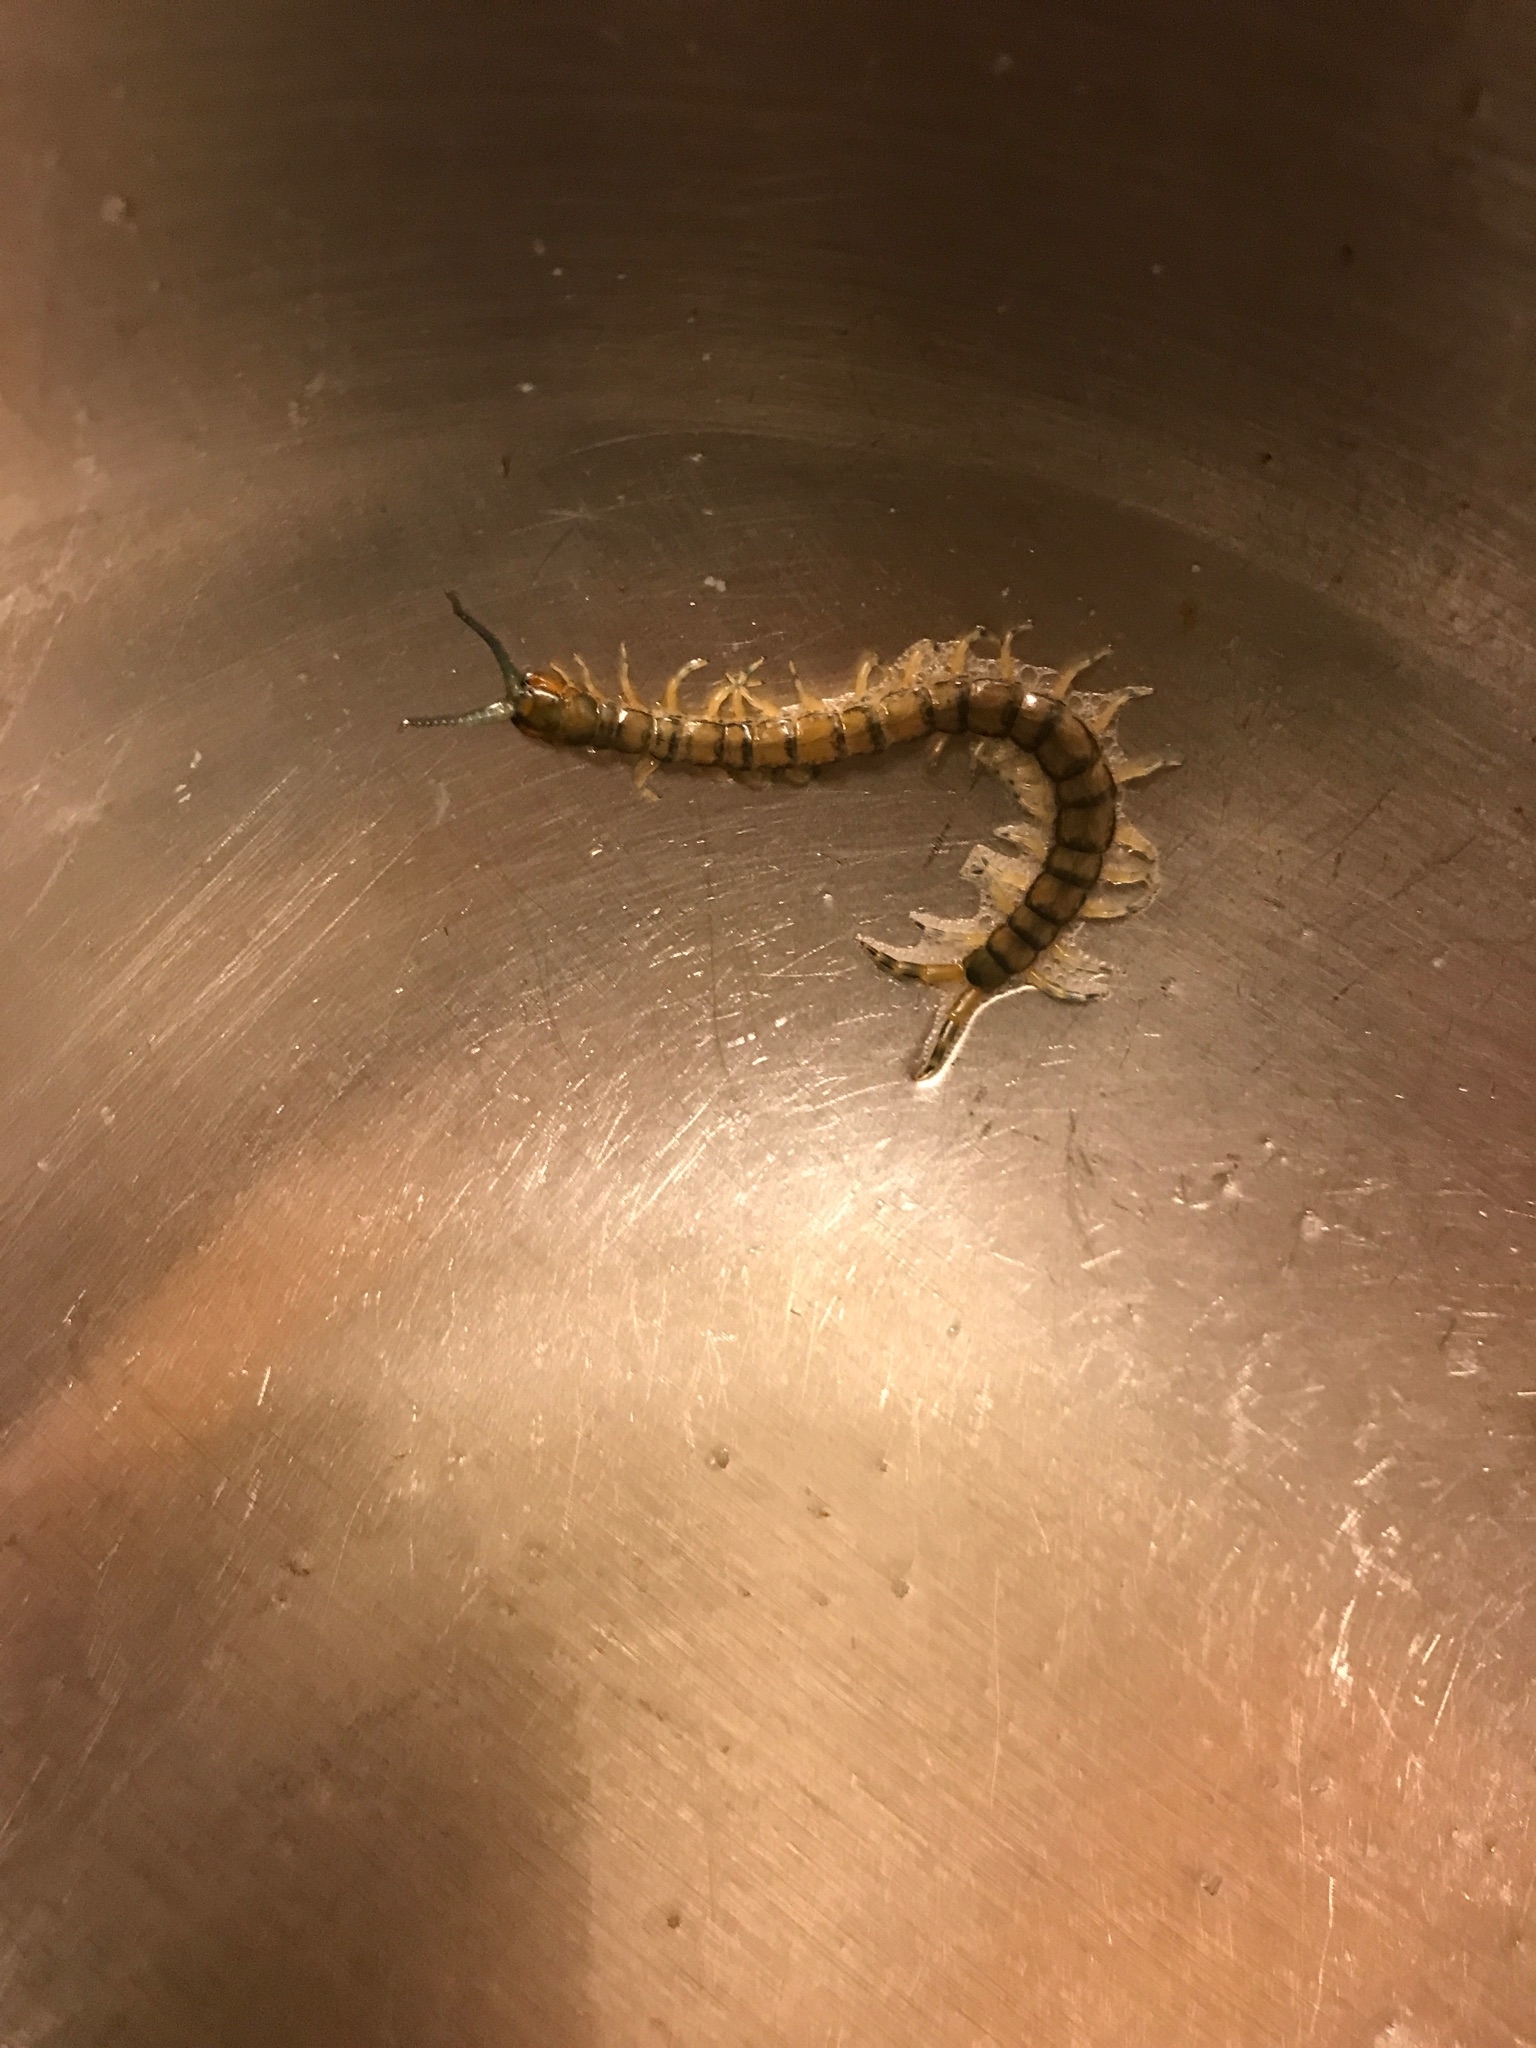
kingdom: Animalia
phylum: Arthropoda
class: Chilopoda
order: Scolopendromorpha
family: Scolopendridae
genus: Hemiscolopendra
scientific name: Hemiscolopendra marginata
